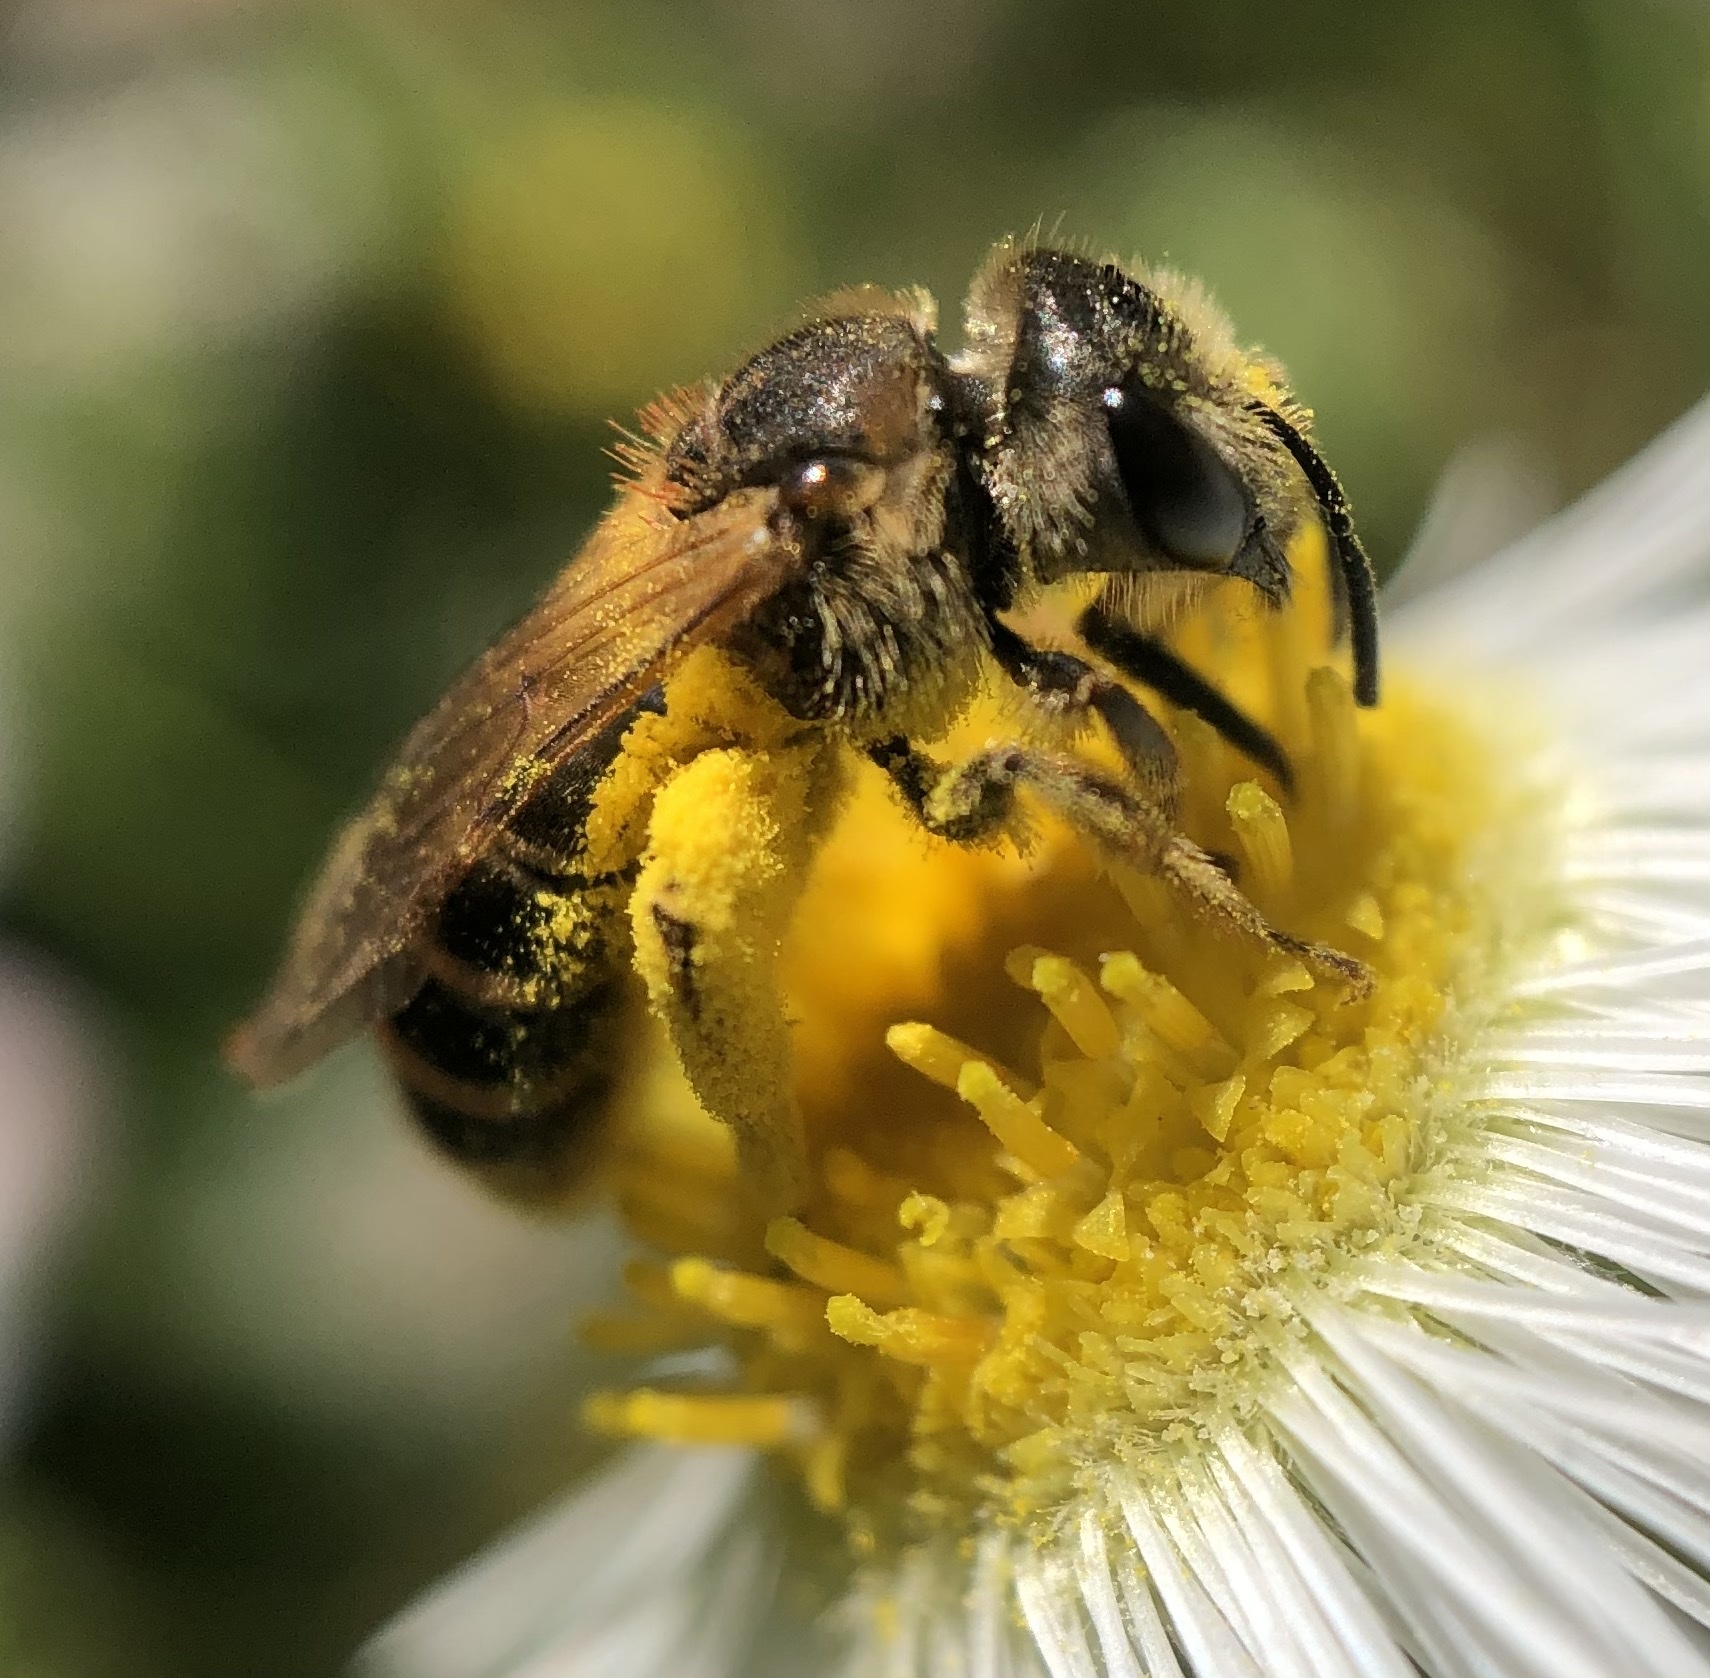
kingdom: Animalia
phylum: Arthropoda
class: Insecta
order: Hymenoptera
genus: Odontalictus
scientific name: Odontalictus
